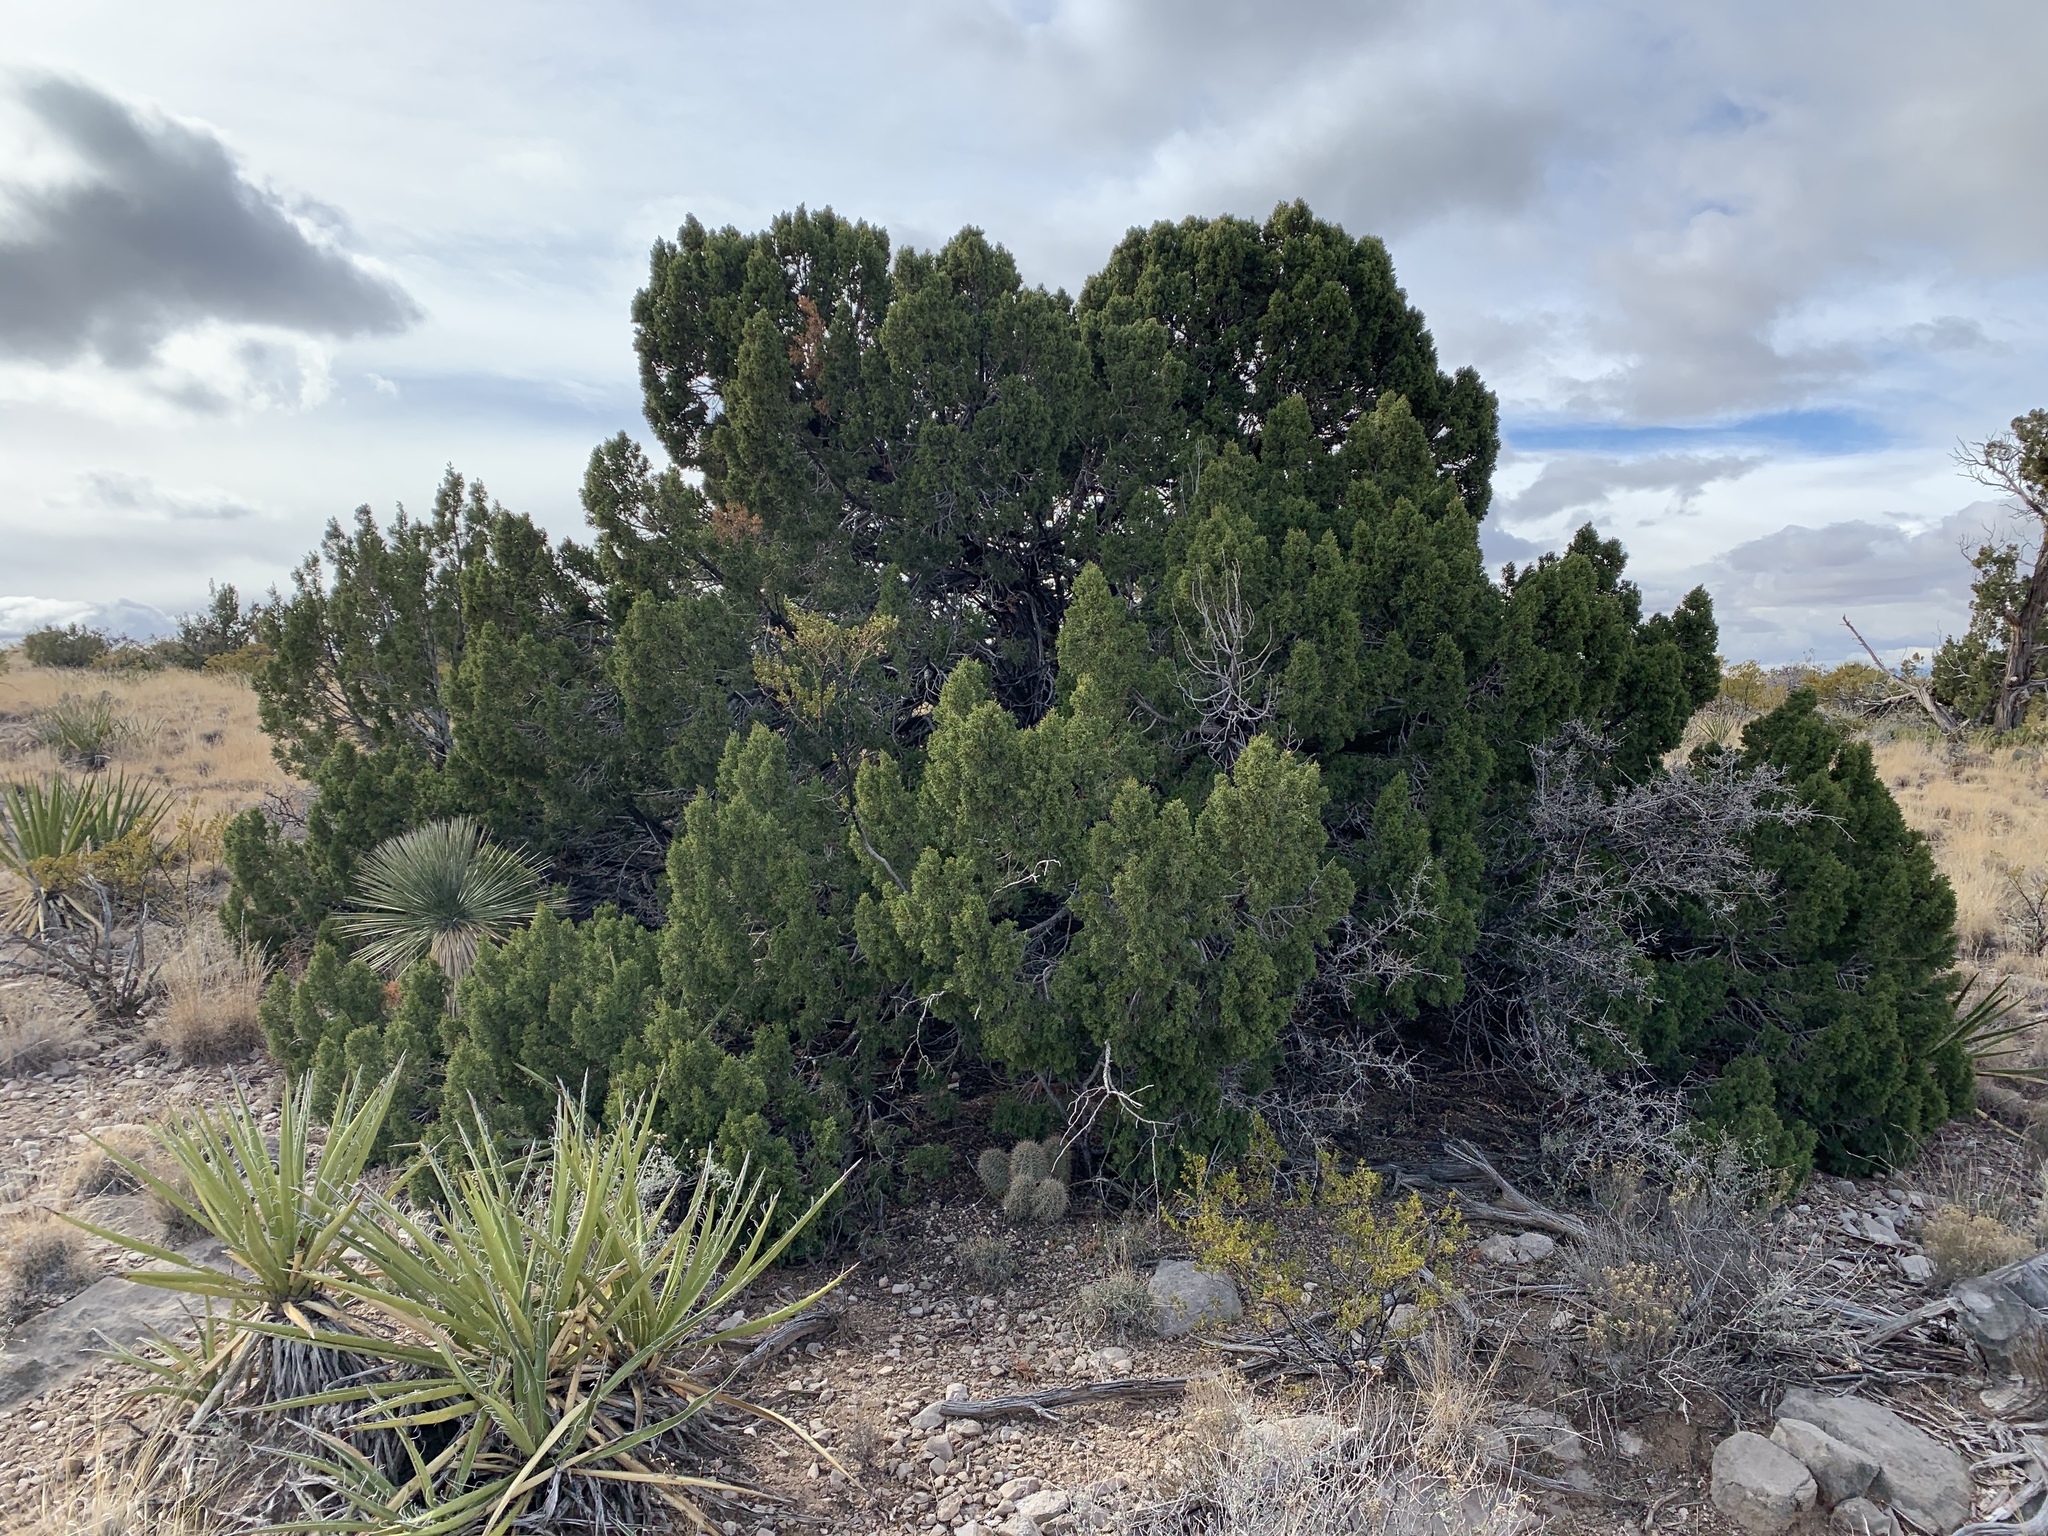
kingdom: Plantae
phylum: Tracheophyta
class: Pinopsida
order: Pinales
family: Cupressaceae
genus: Juniperus
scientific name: Juniperus monosperma
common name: One-seed juniper
